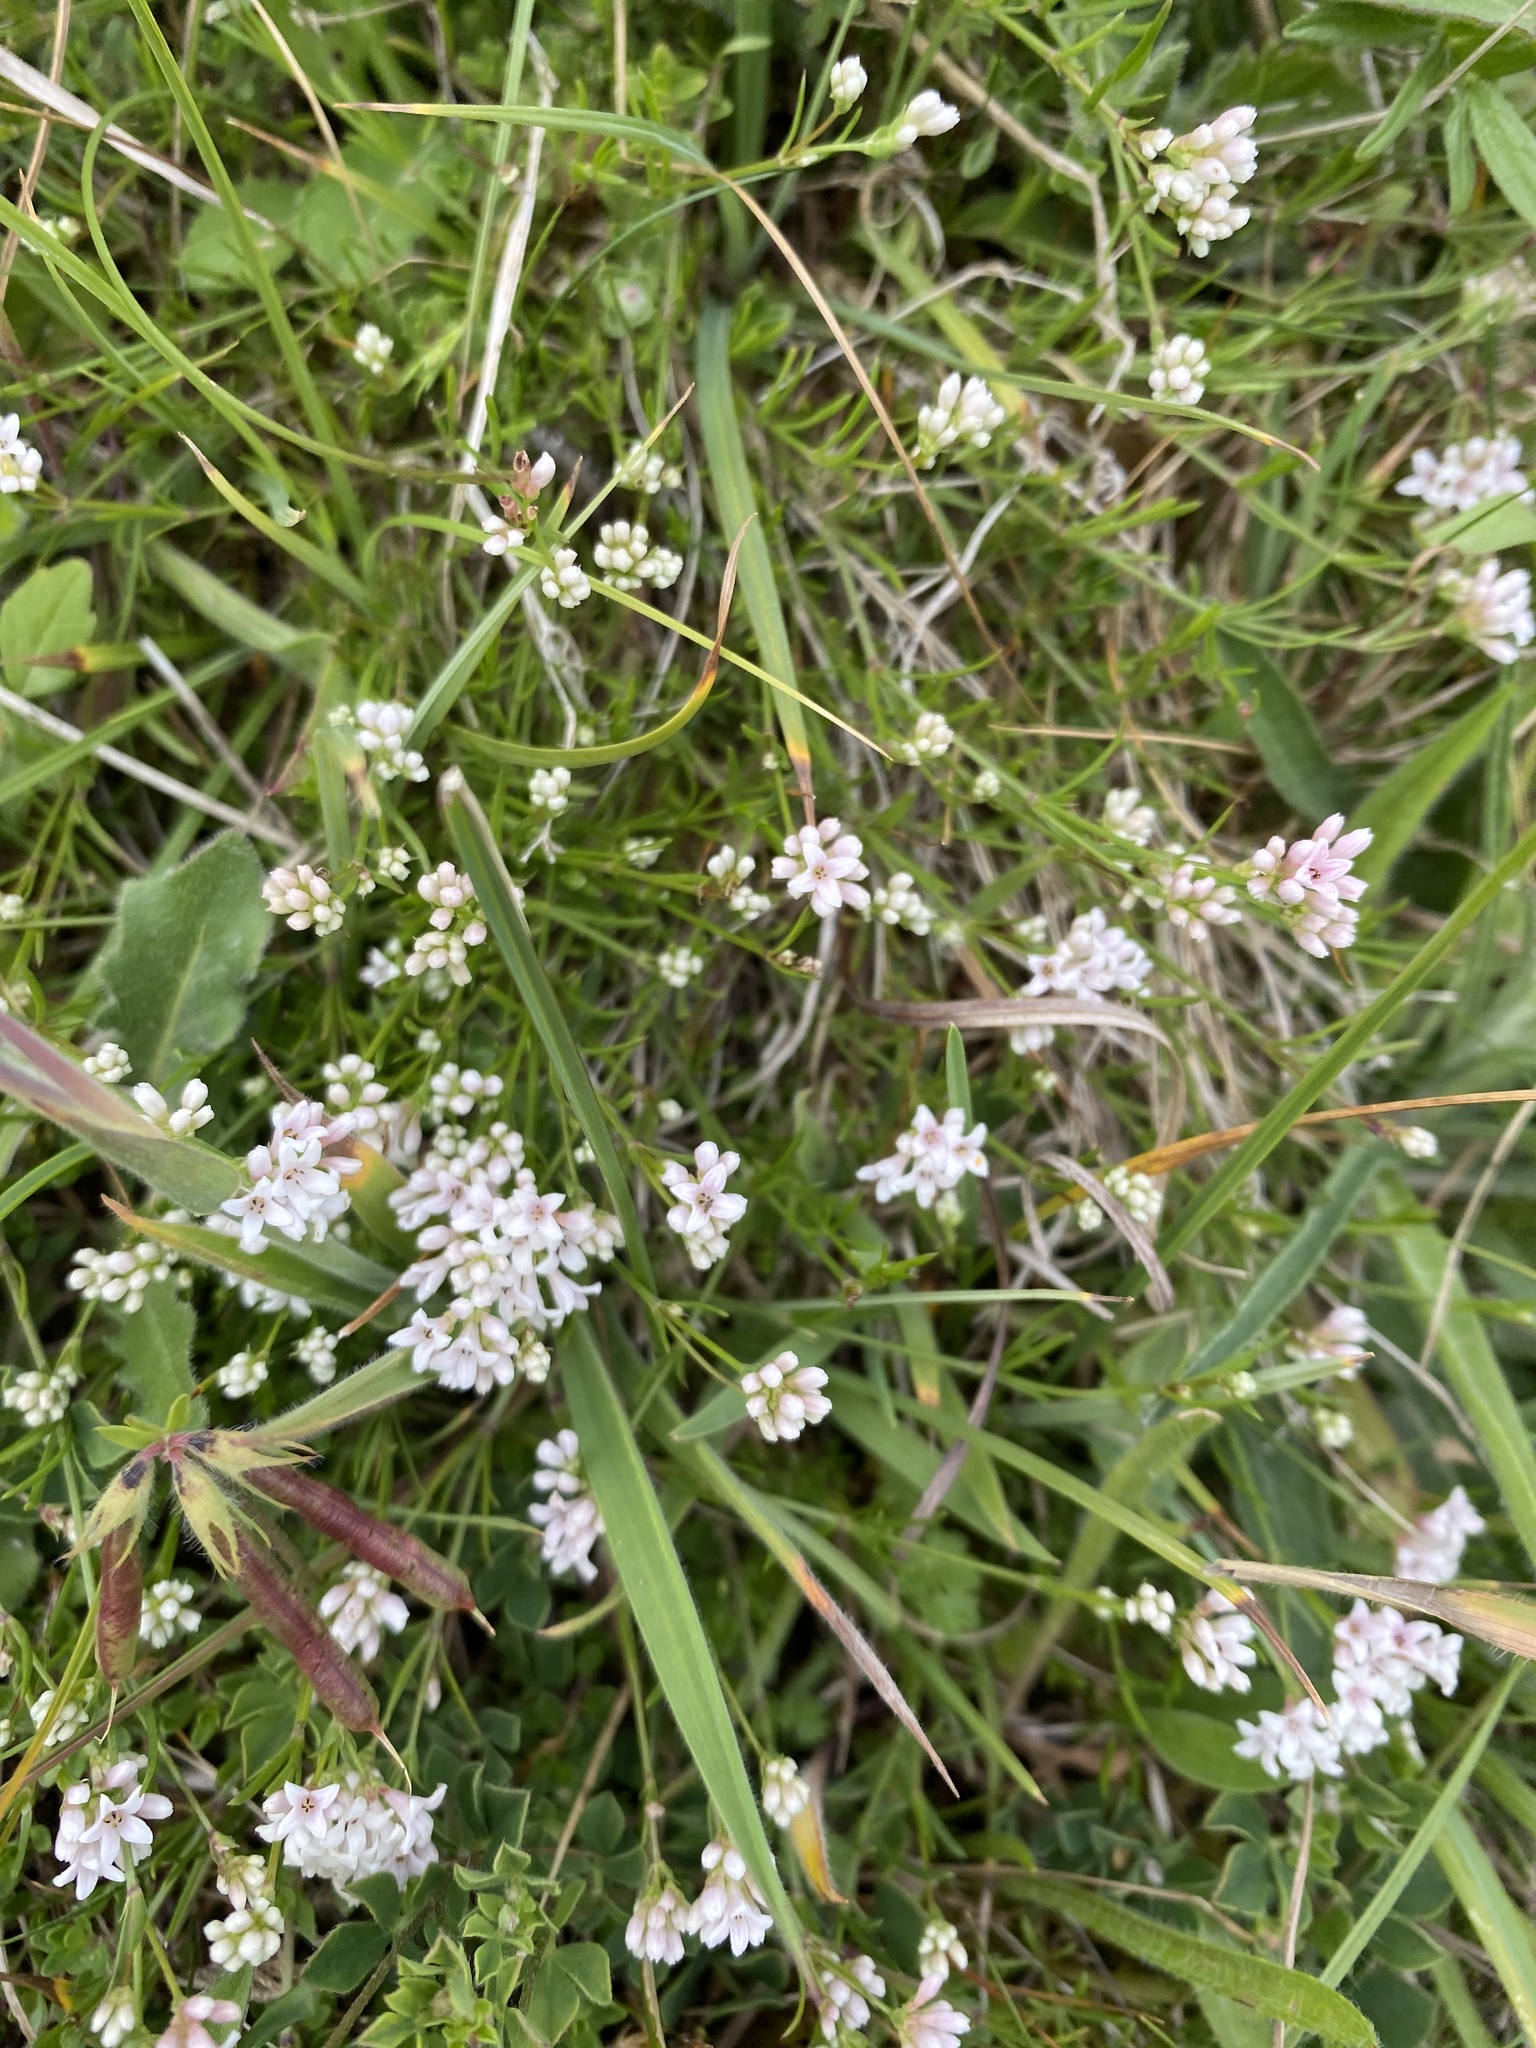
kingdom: Plantae
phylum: Tracheophyta
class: Magnoliopsida
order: Gentianales
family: Rubiaceae
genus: Cynanchica
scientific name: Cynanchica pyrenaica
